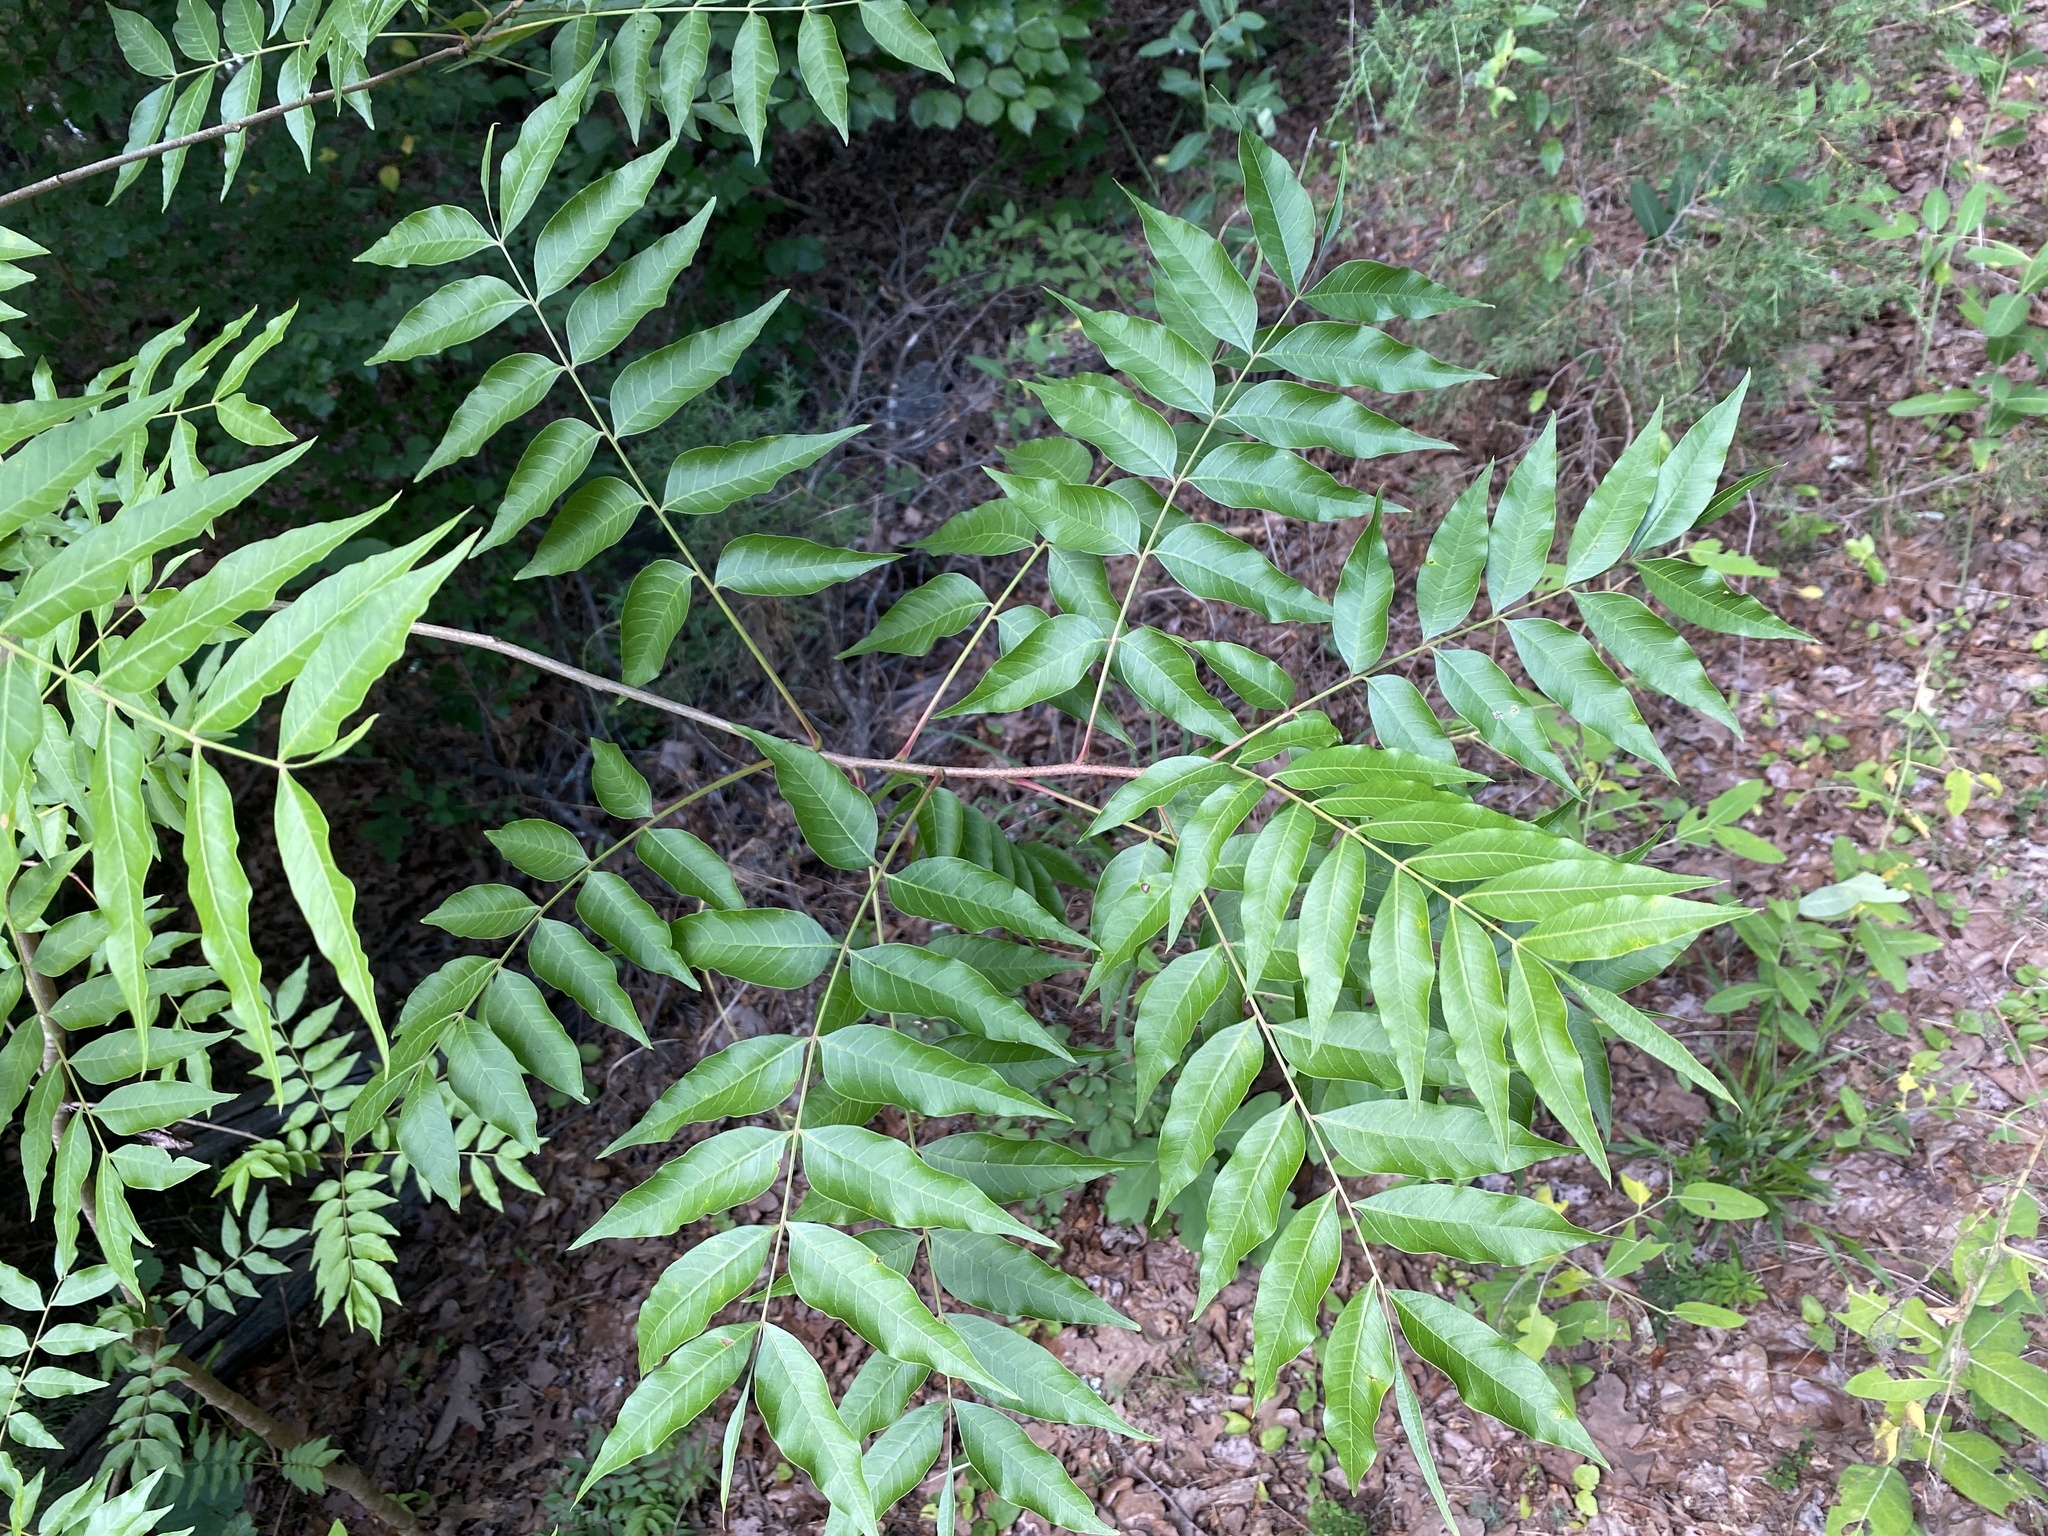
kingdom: Plantae
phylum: Tracheophyta
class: Magnoliopsida
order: Sapindales
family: Anacardiaceae
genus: Pistacia
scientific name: Pistacia chinensis
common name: Chinese pistache
